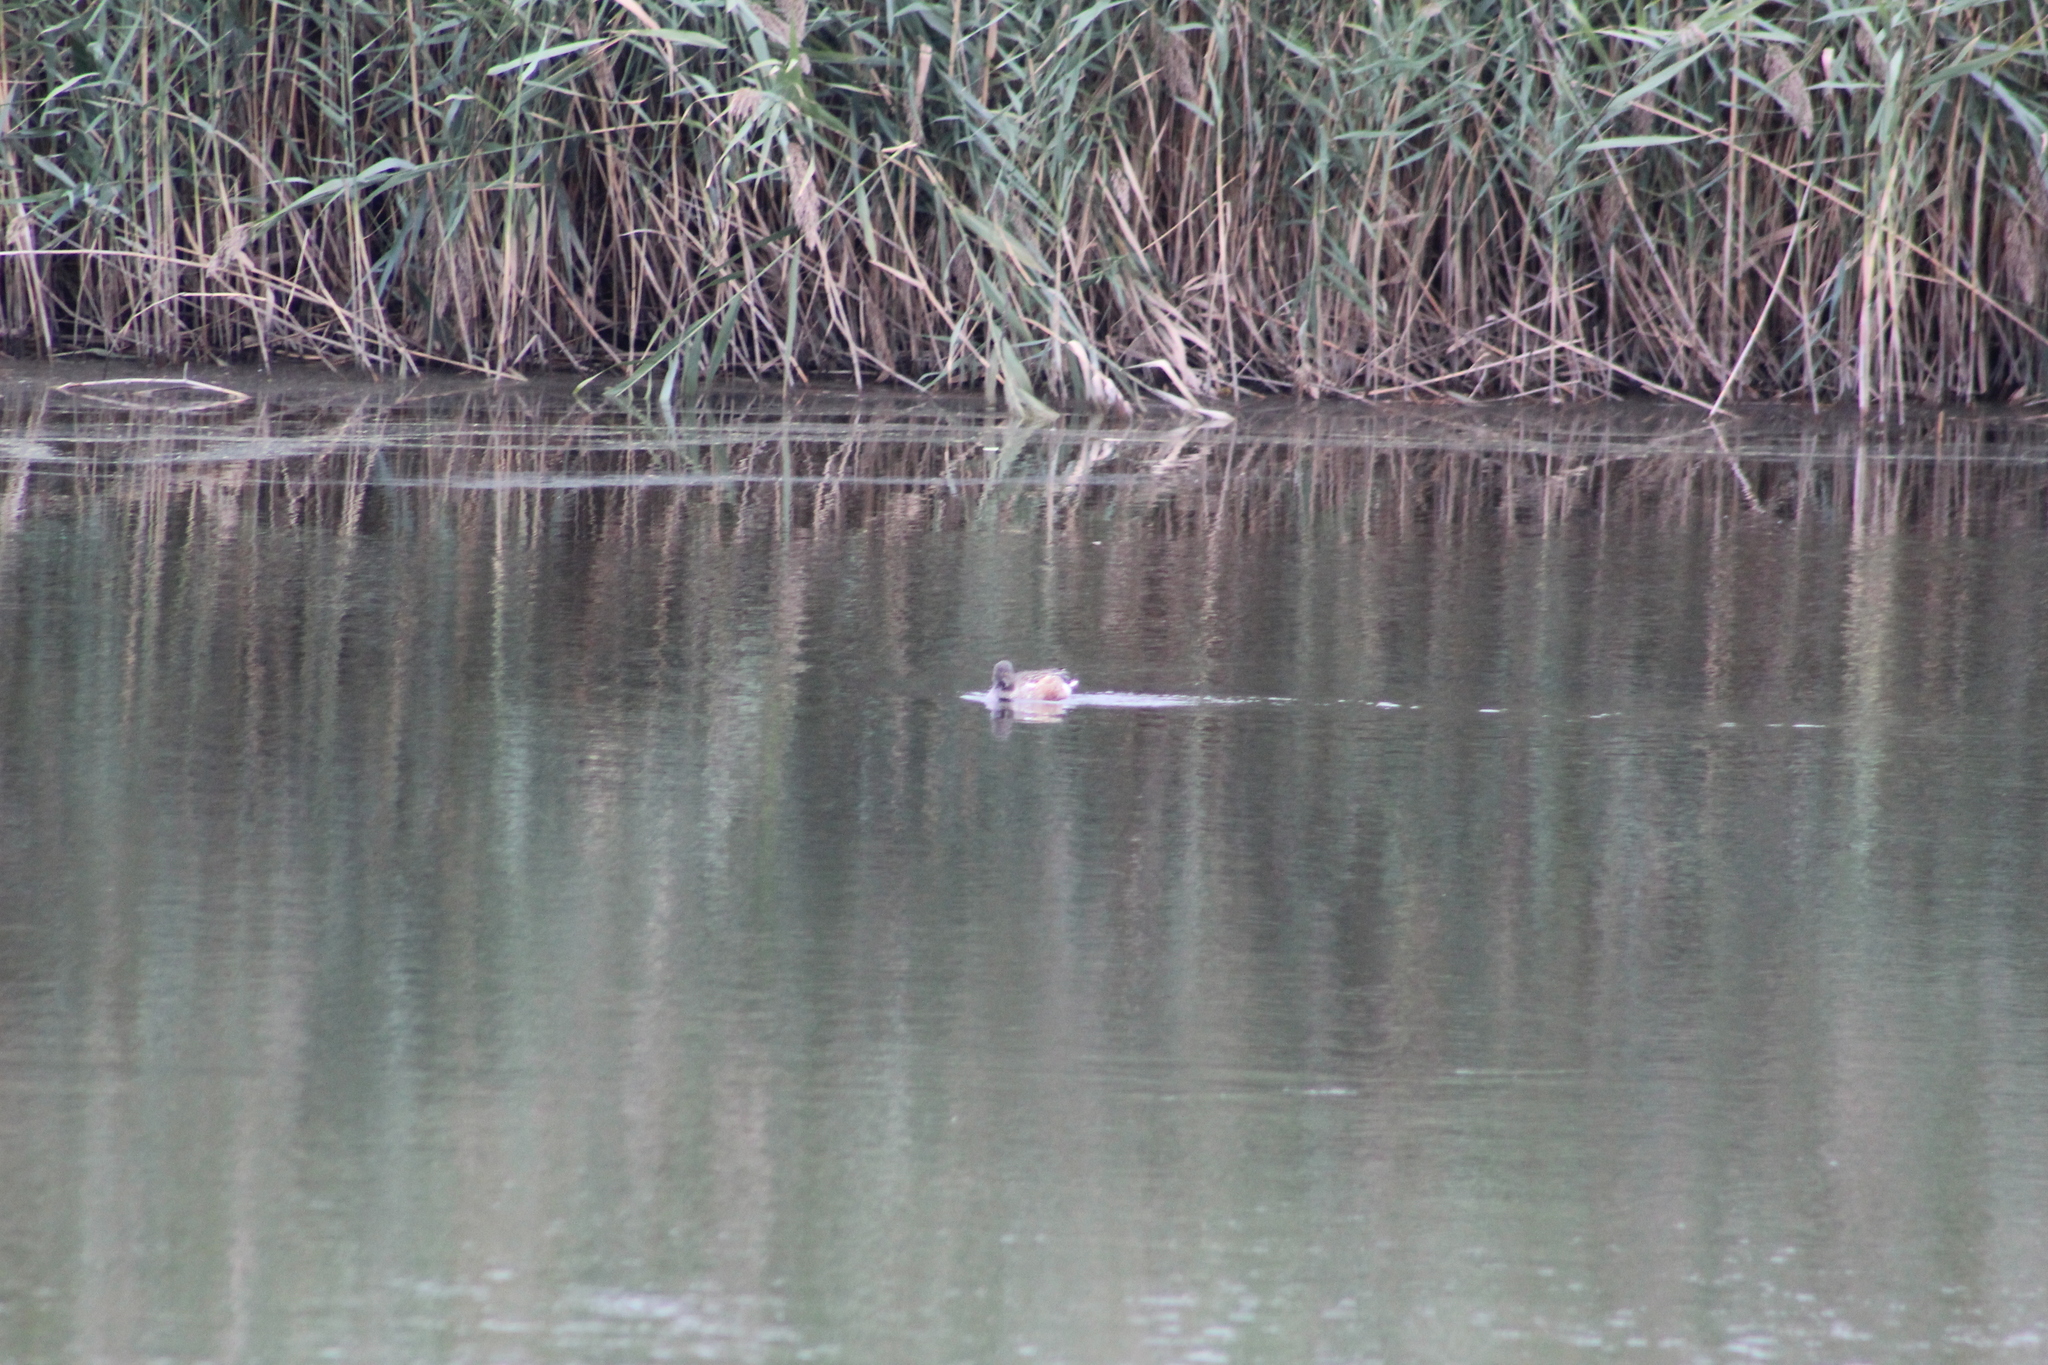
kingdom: Animalia
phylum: Chordata
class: Aves
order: Anseriformes
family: Anatidae
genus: Spatula
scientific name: Spatula clypeata
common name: Northern shoveler
